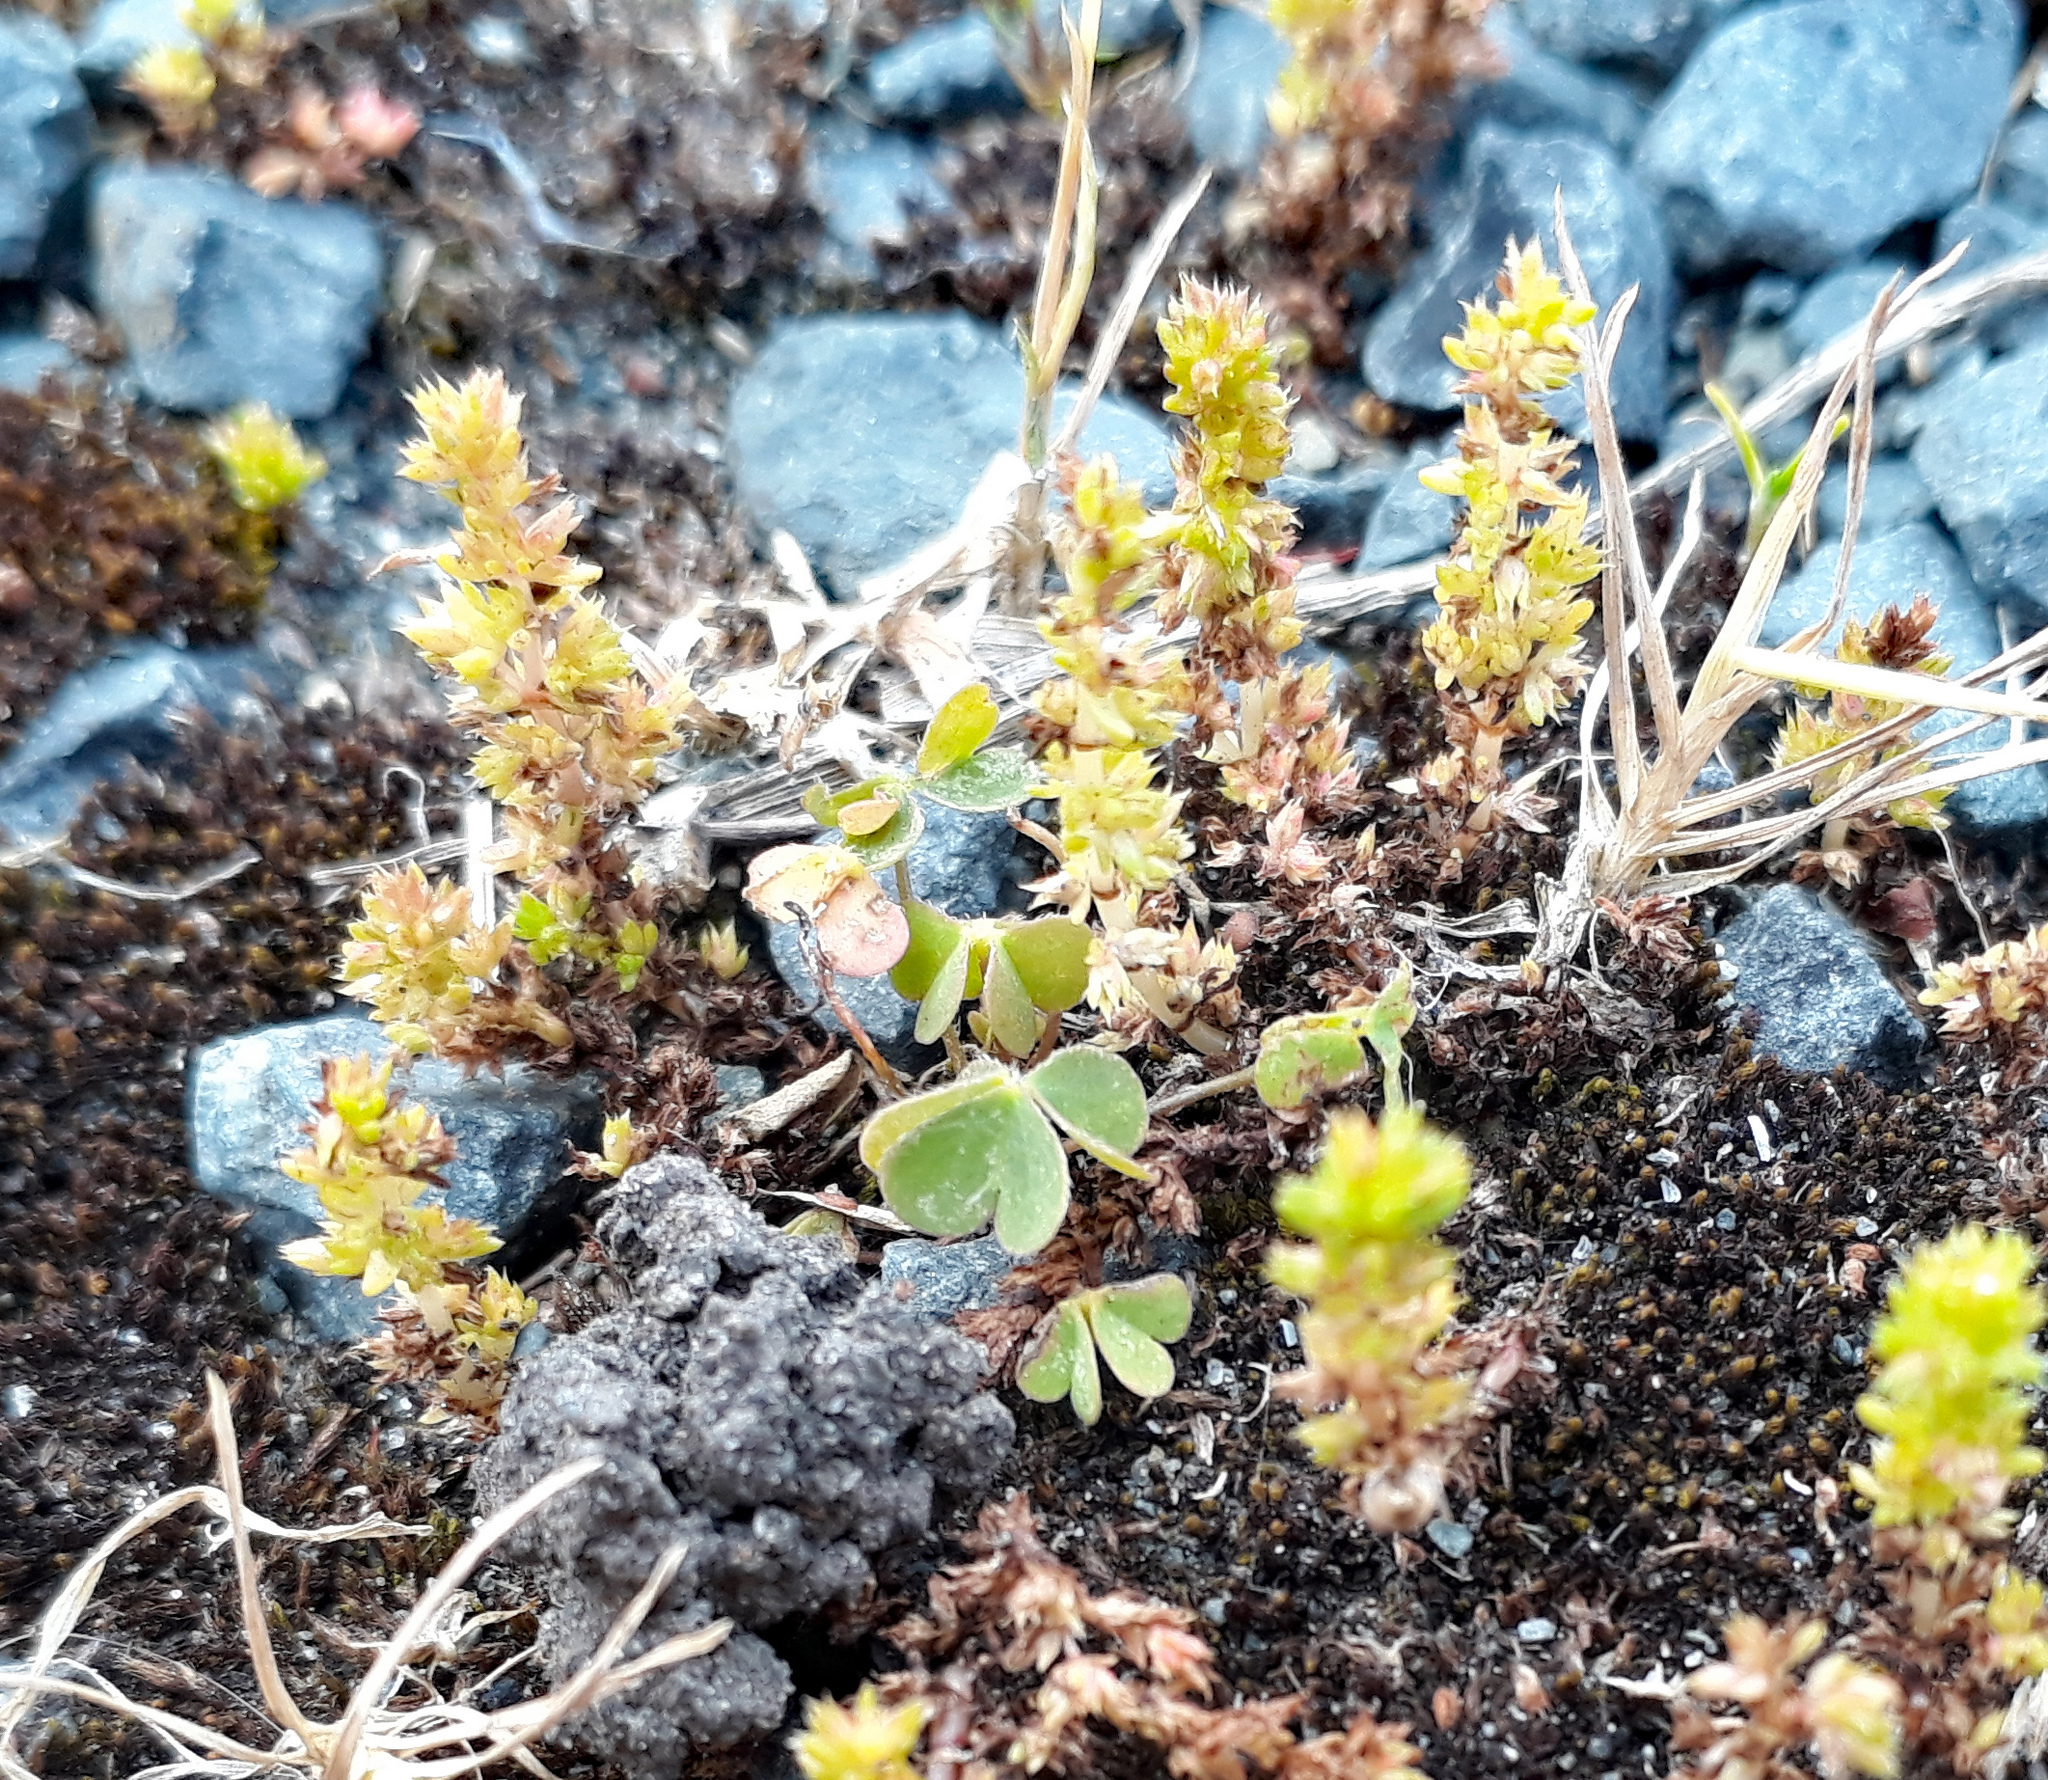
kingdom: Plantae
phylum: Tracheophyta
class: Magnoliopsida
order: Saxifragales
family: Crassulaceae
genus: Crassula
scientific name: Crassula alata
